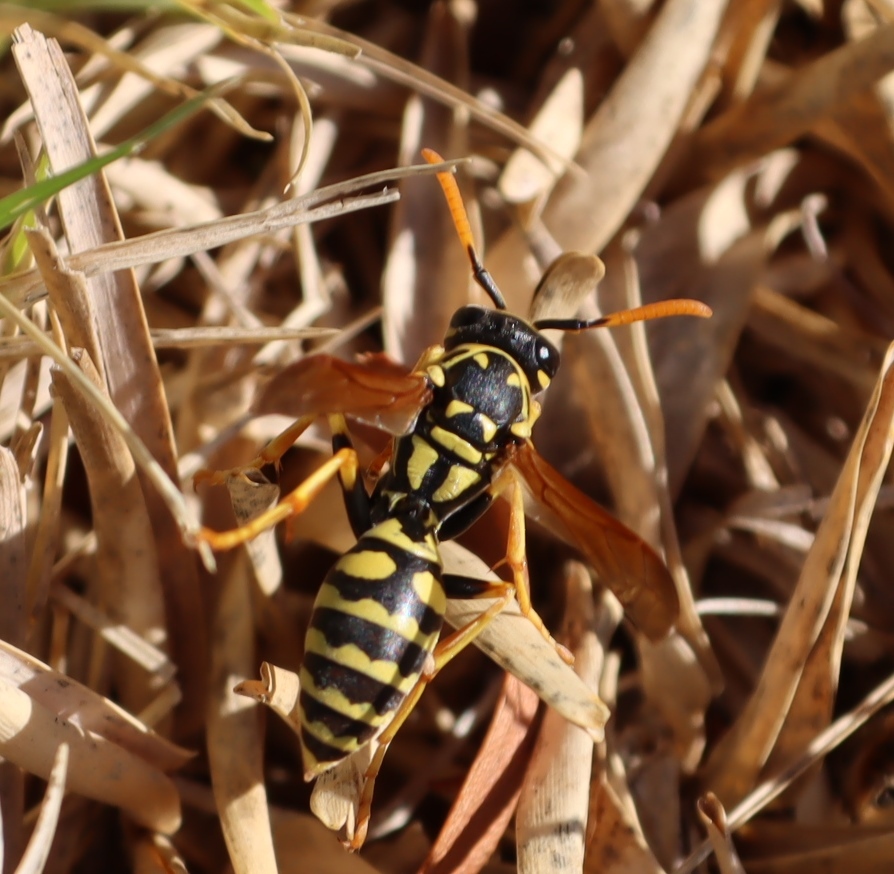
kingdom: Animalia
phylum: Arthropoda
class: Insecta
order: Hymenoptera
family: Eumenidae
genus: Polistes
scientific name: Polistes dominula
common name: Paper wasp
